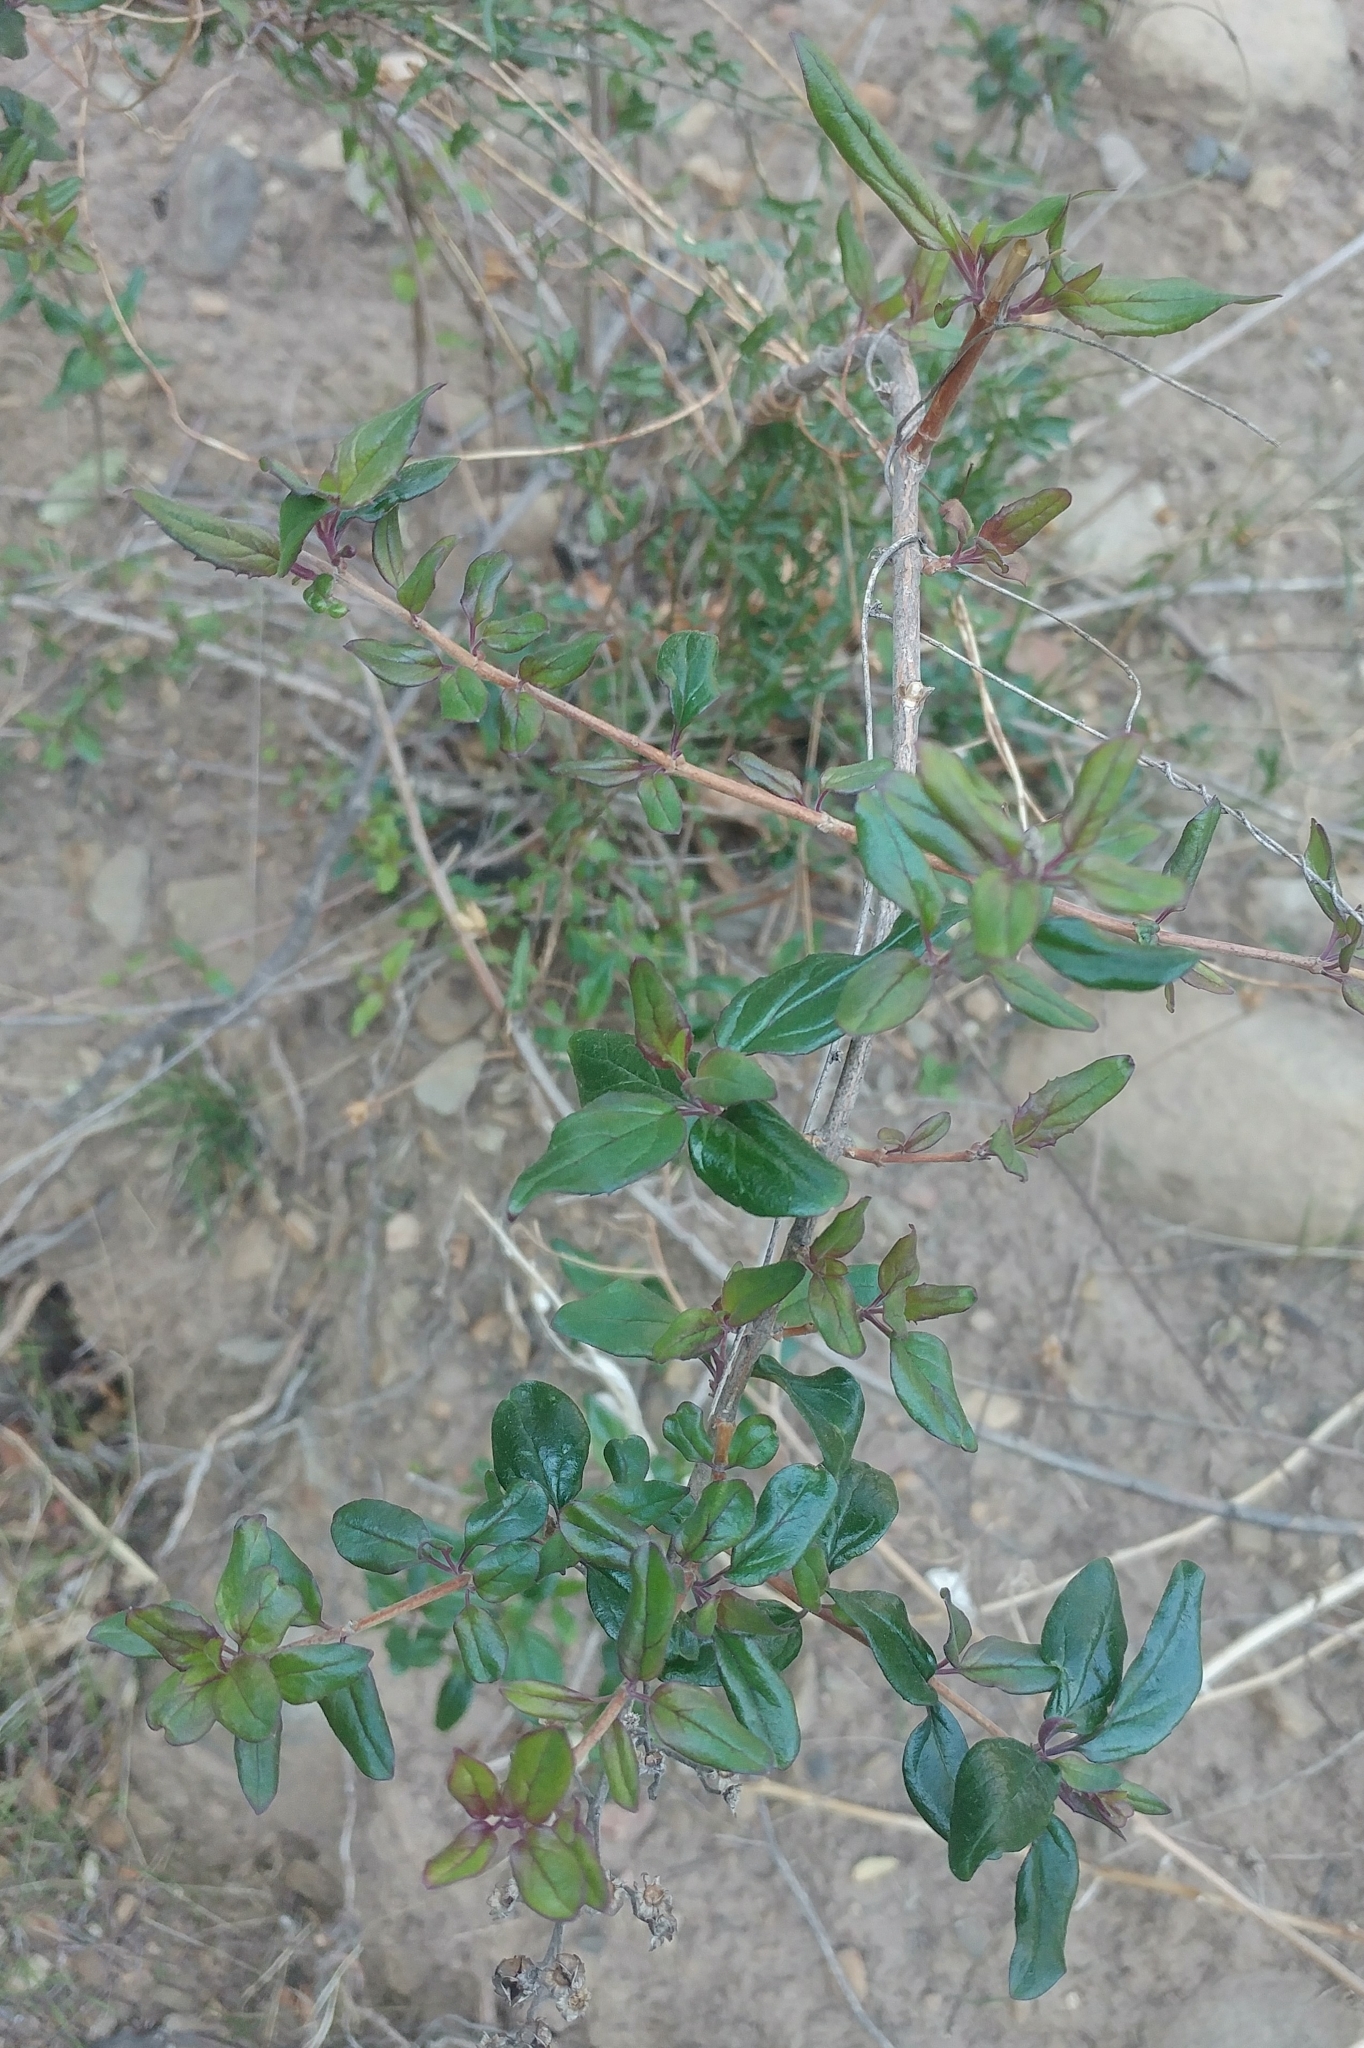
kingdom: Plantae
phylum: Tracheophyta
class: Magnoliopsida
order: Lamiales
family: Plantaginaceae
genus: Keckiella
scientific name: Keckiella cordifolia
